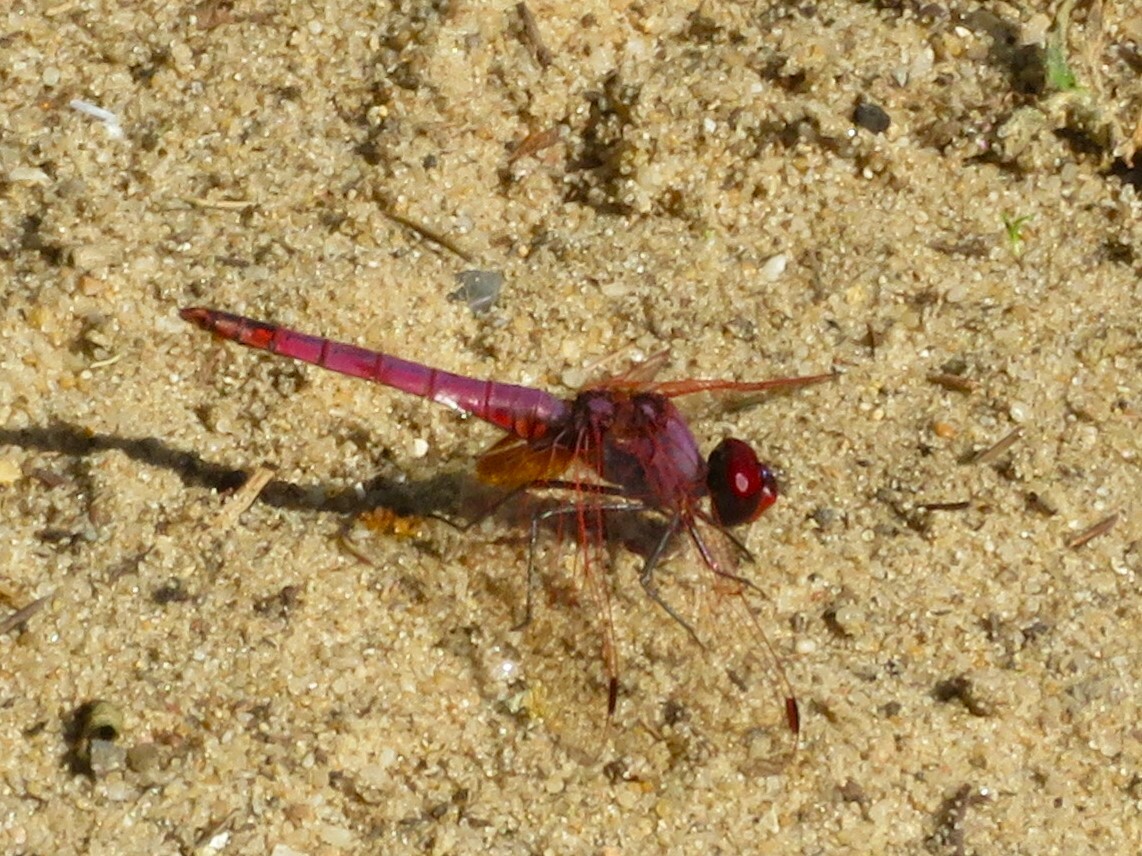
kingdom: Animalia
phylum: Arthropoda
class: Insecta
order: Odonata
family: Libellulidae
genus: Trithemis
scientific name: Trithemis annulata
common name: Violet dropwing
